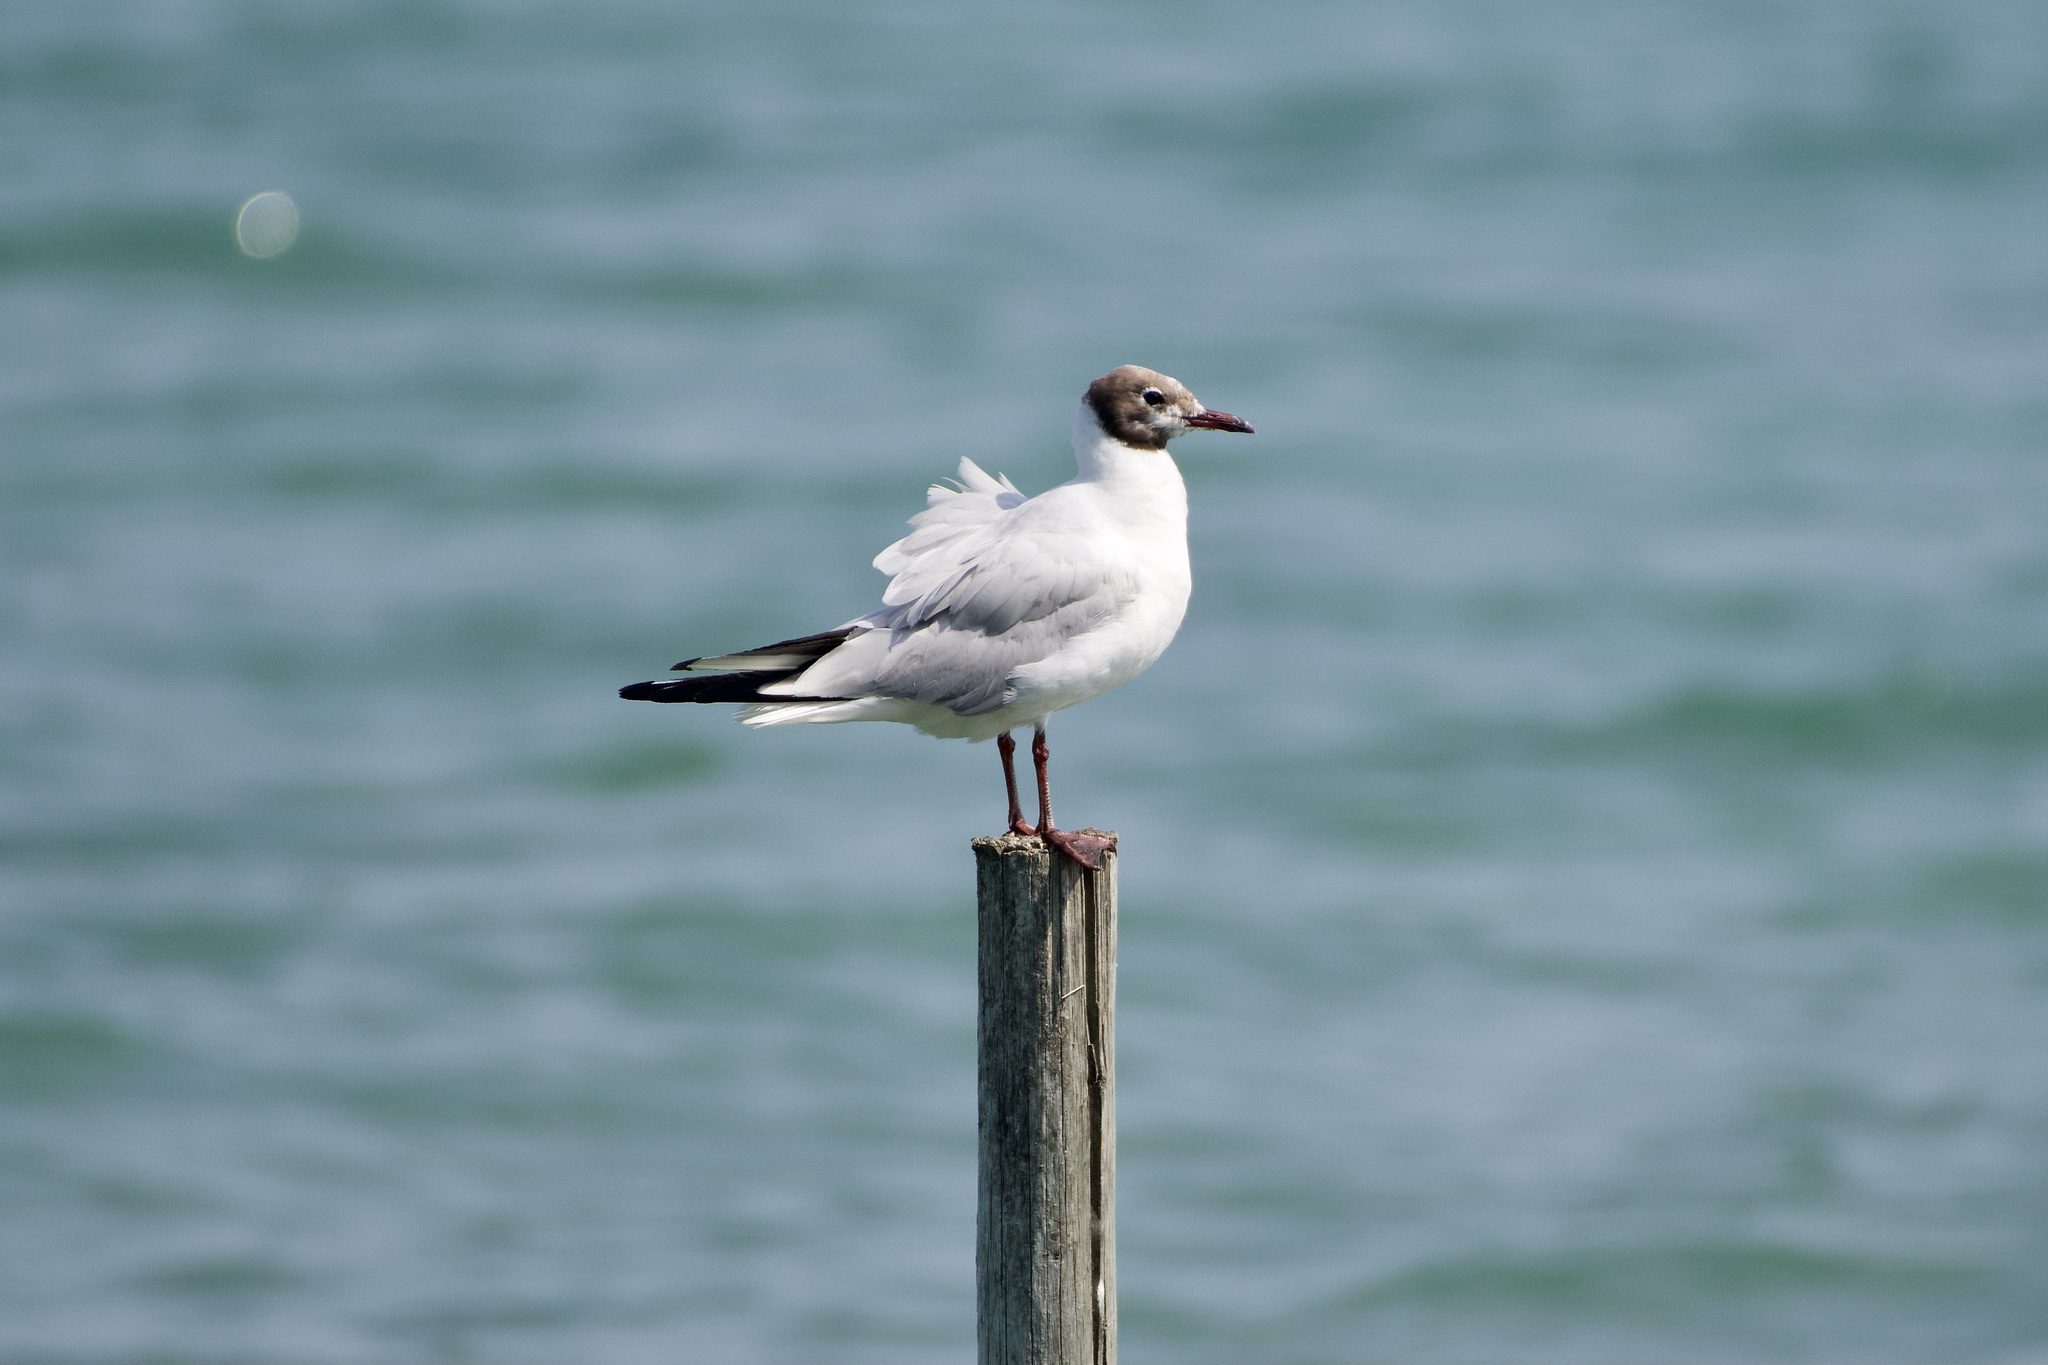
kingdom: Animalia
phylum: Chordata
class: Aves
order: Charadriiformes
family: Laridae
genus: Chroicocephalus
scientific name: Chroicocephalus ridibundus
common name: Black-headed gull
